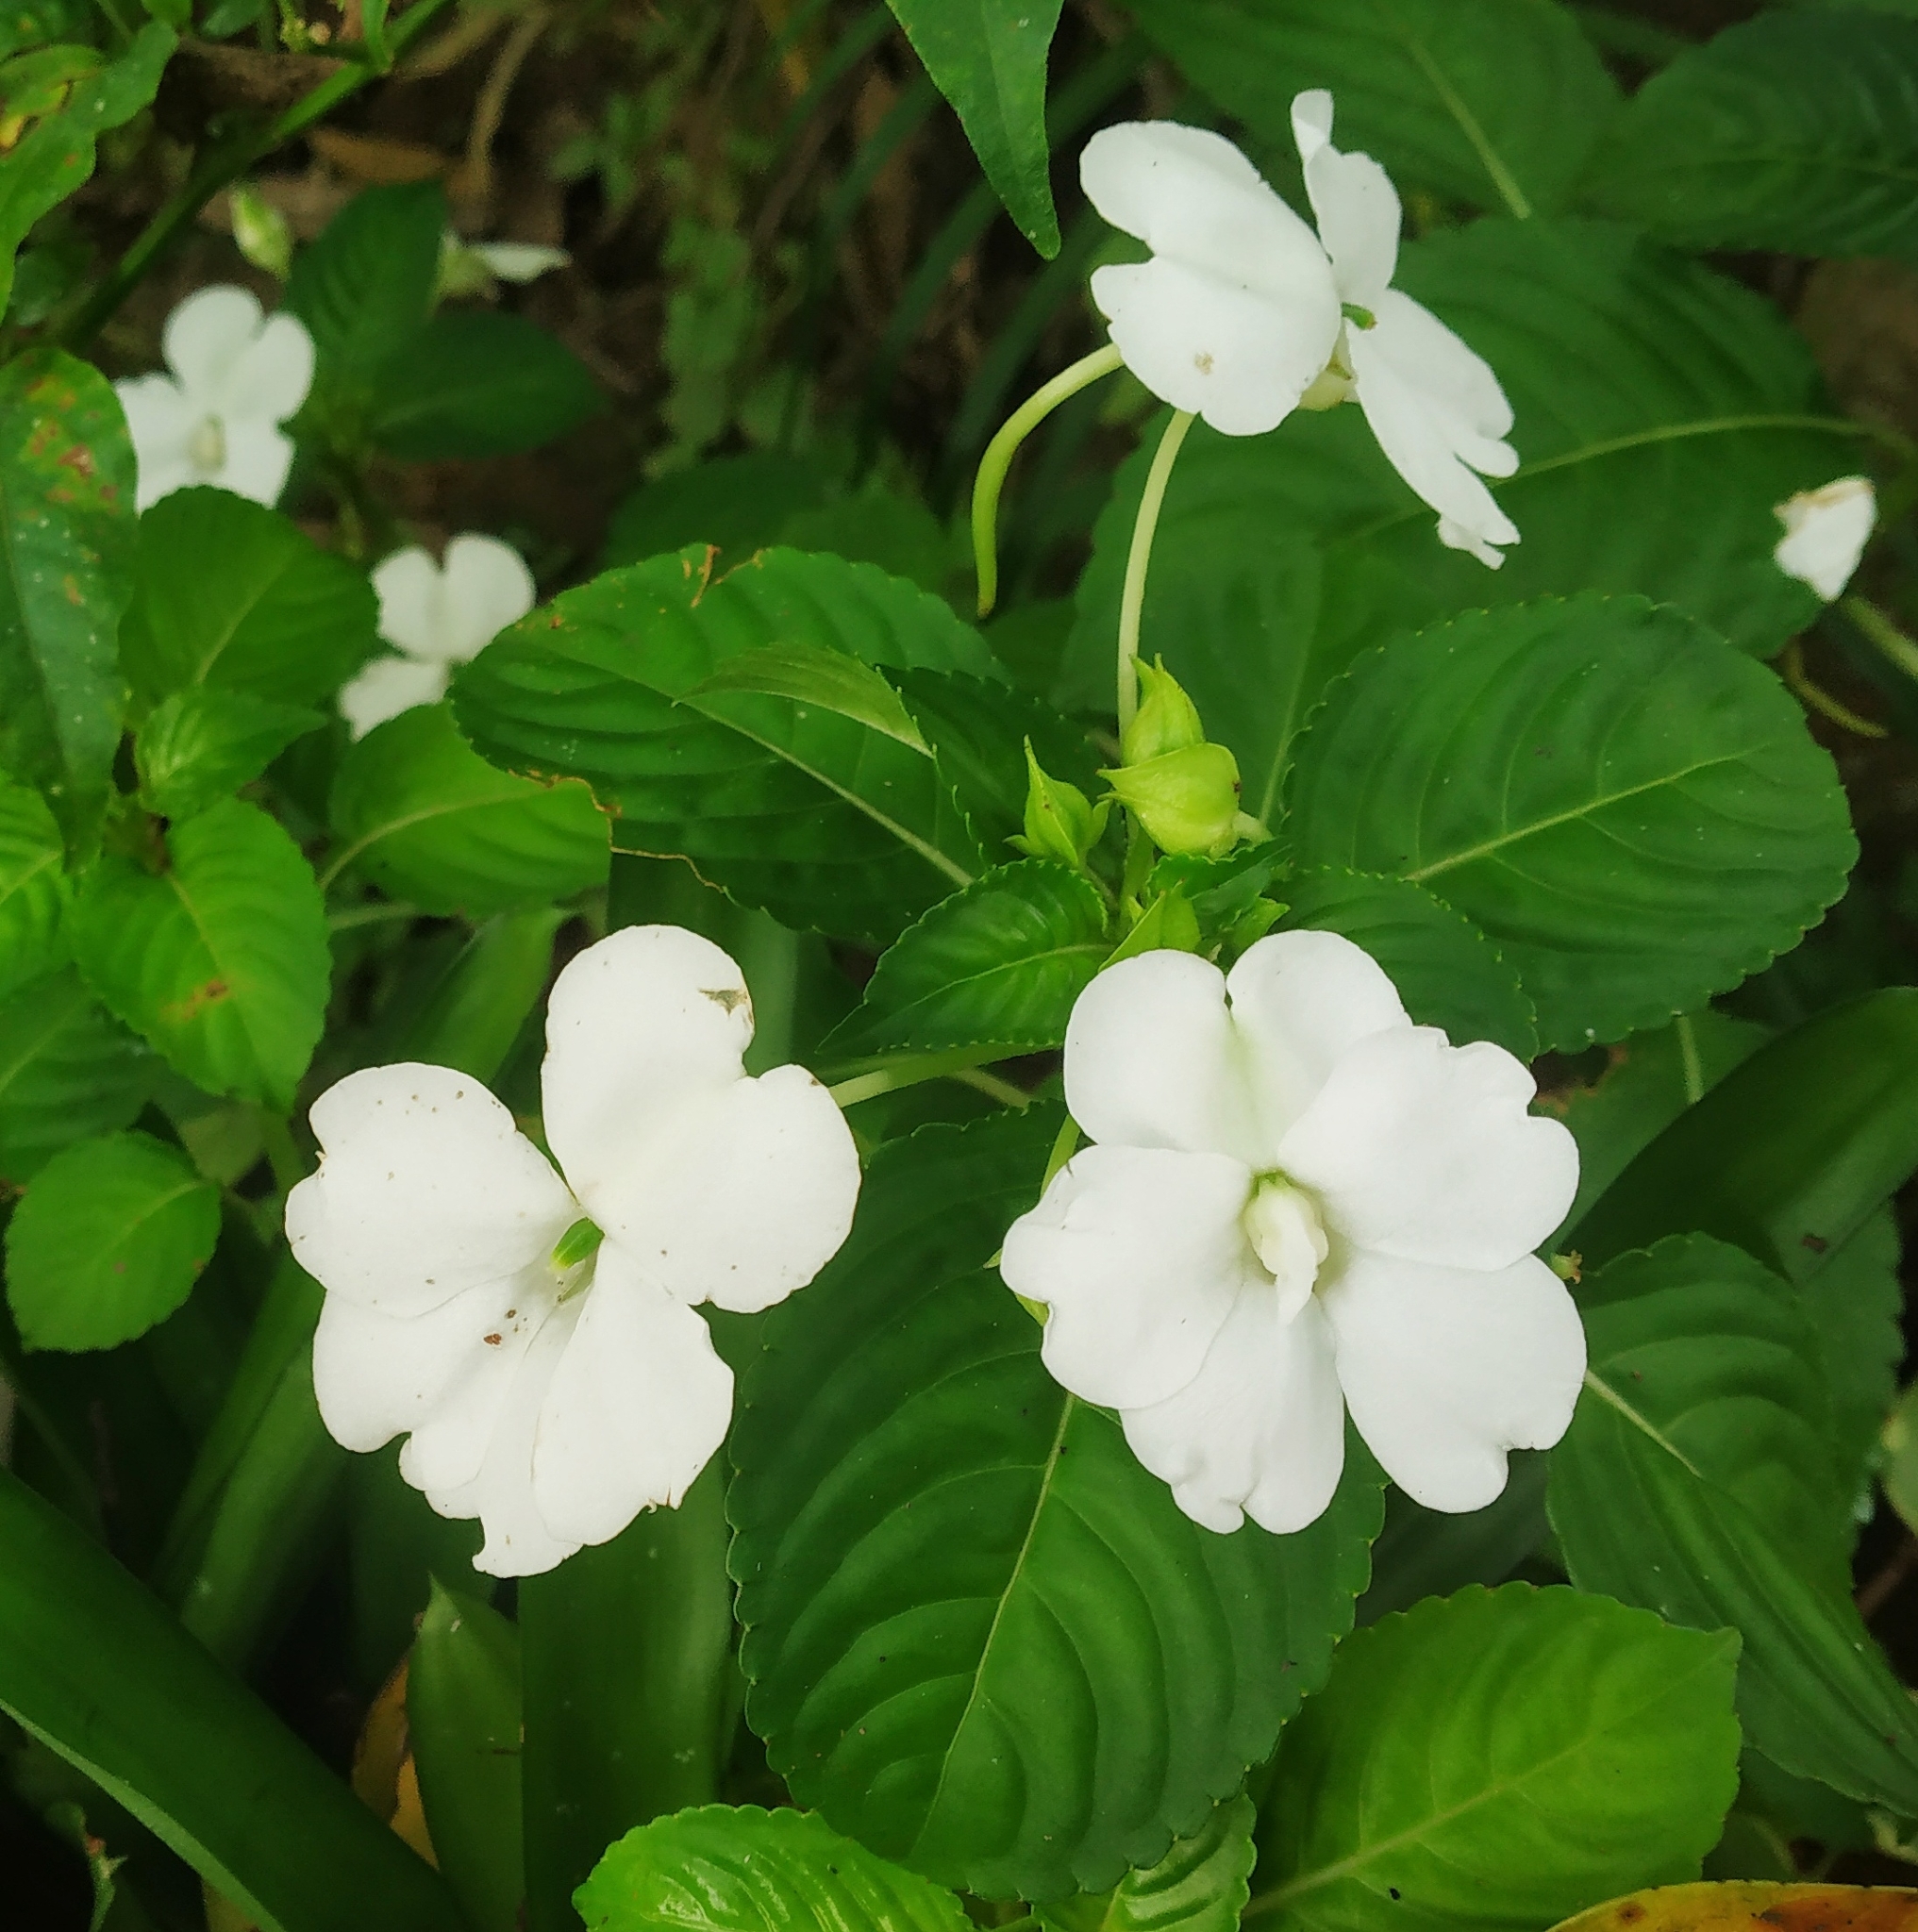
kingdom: Plantae
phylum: Tracheophyta
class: Magnoliopsida
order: Ericales
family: Balsaminaceae
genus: Impatiens
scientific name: Impatiens flaccida
